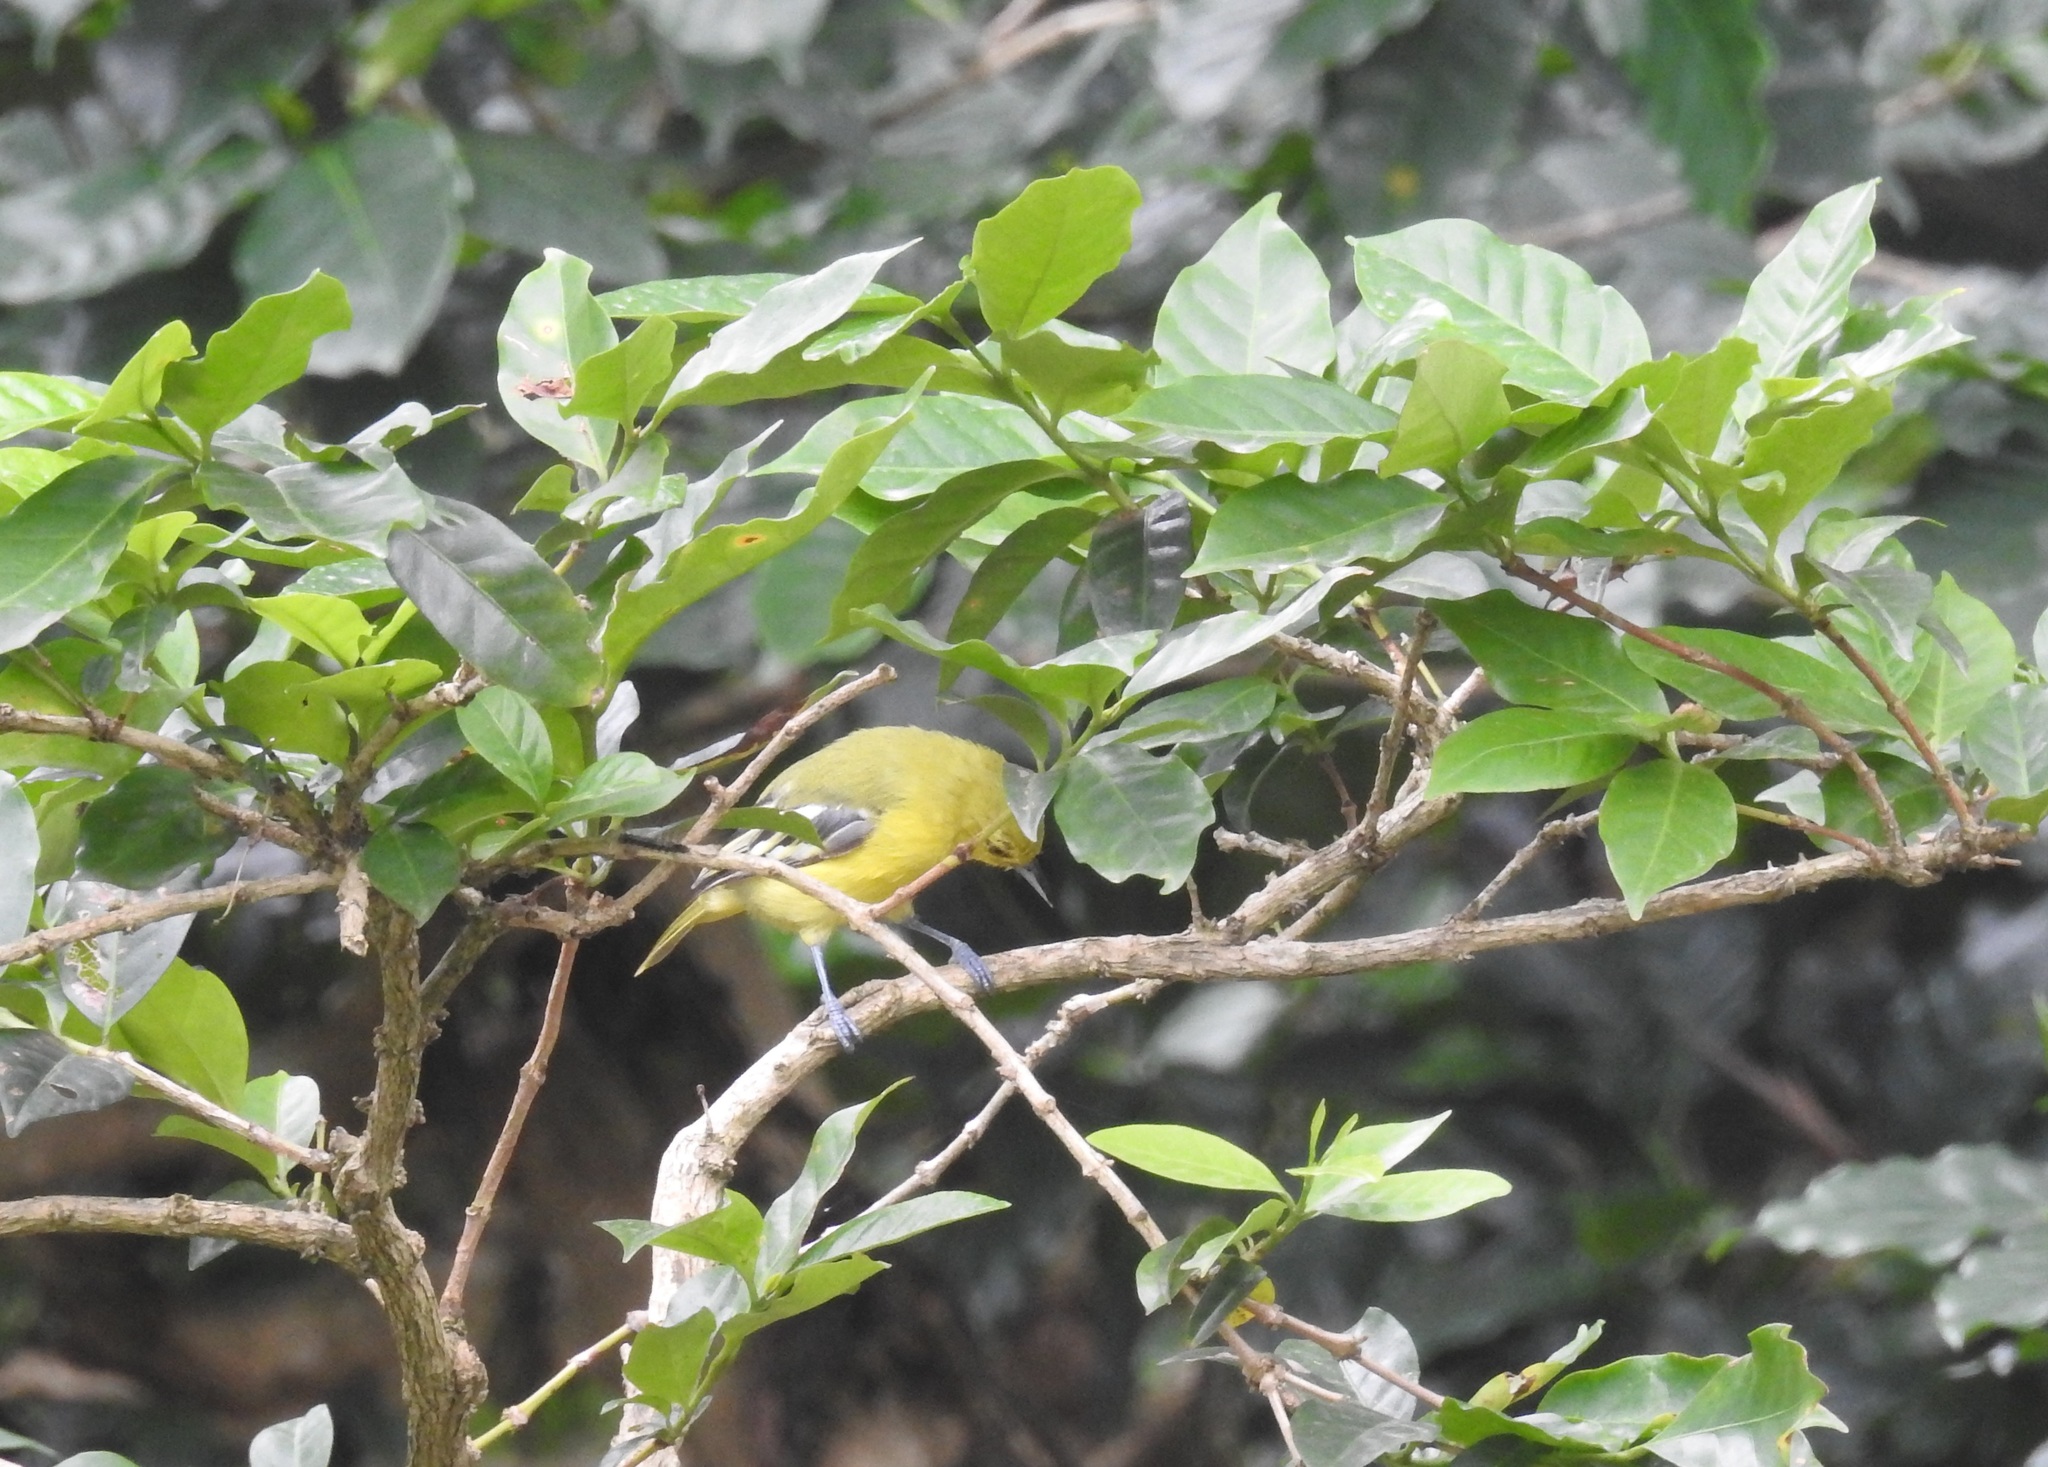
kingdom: Animalia
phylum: Chordata
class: Aves
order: Passeriformes
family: Aegithinidae
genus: Aegithina
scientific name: Aegithina tiphia
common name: Common iora
